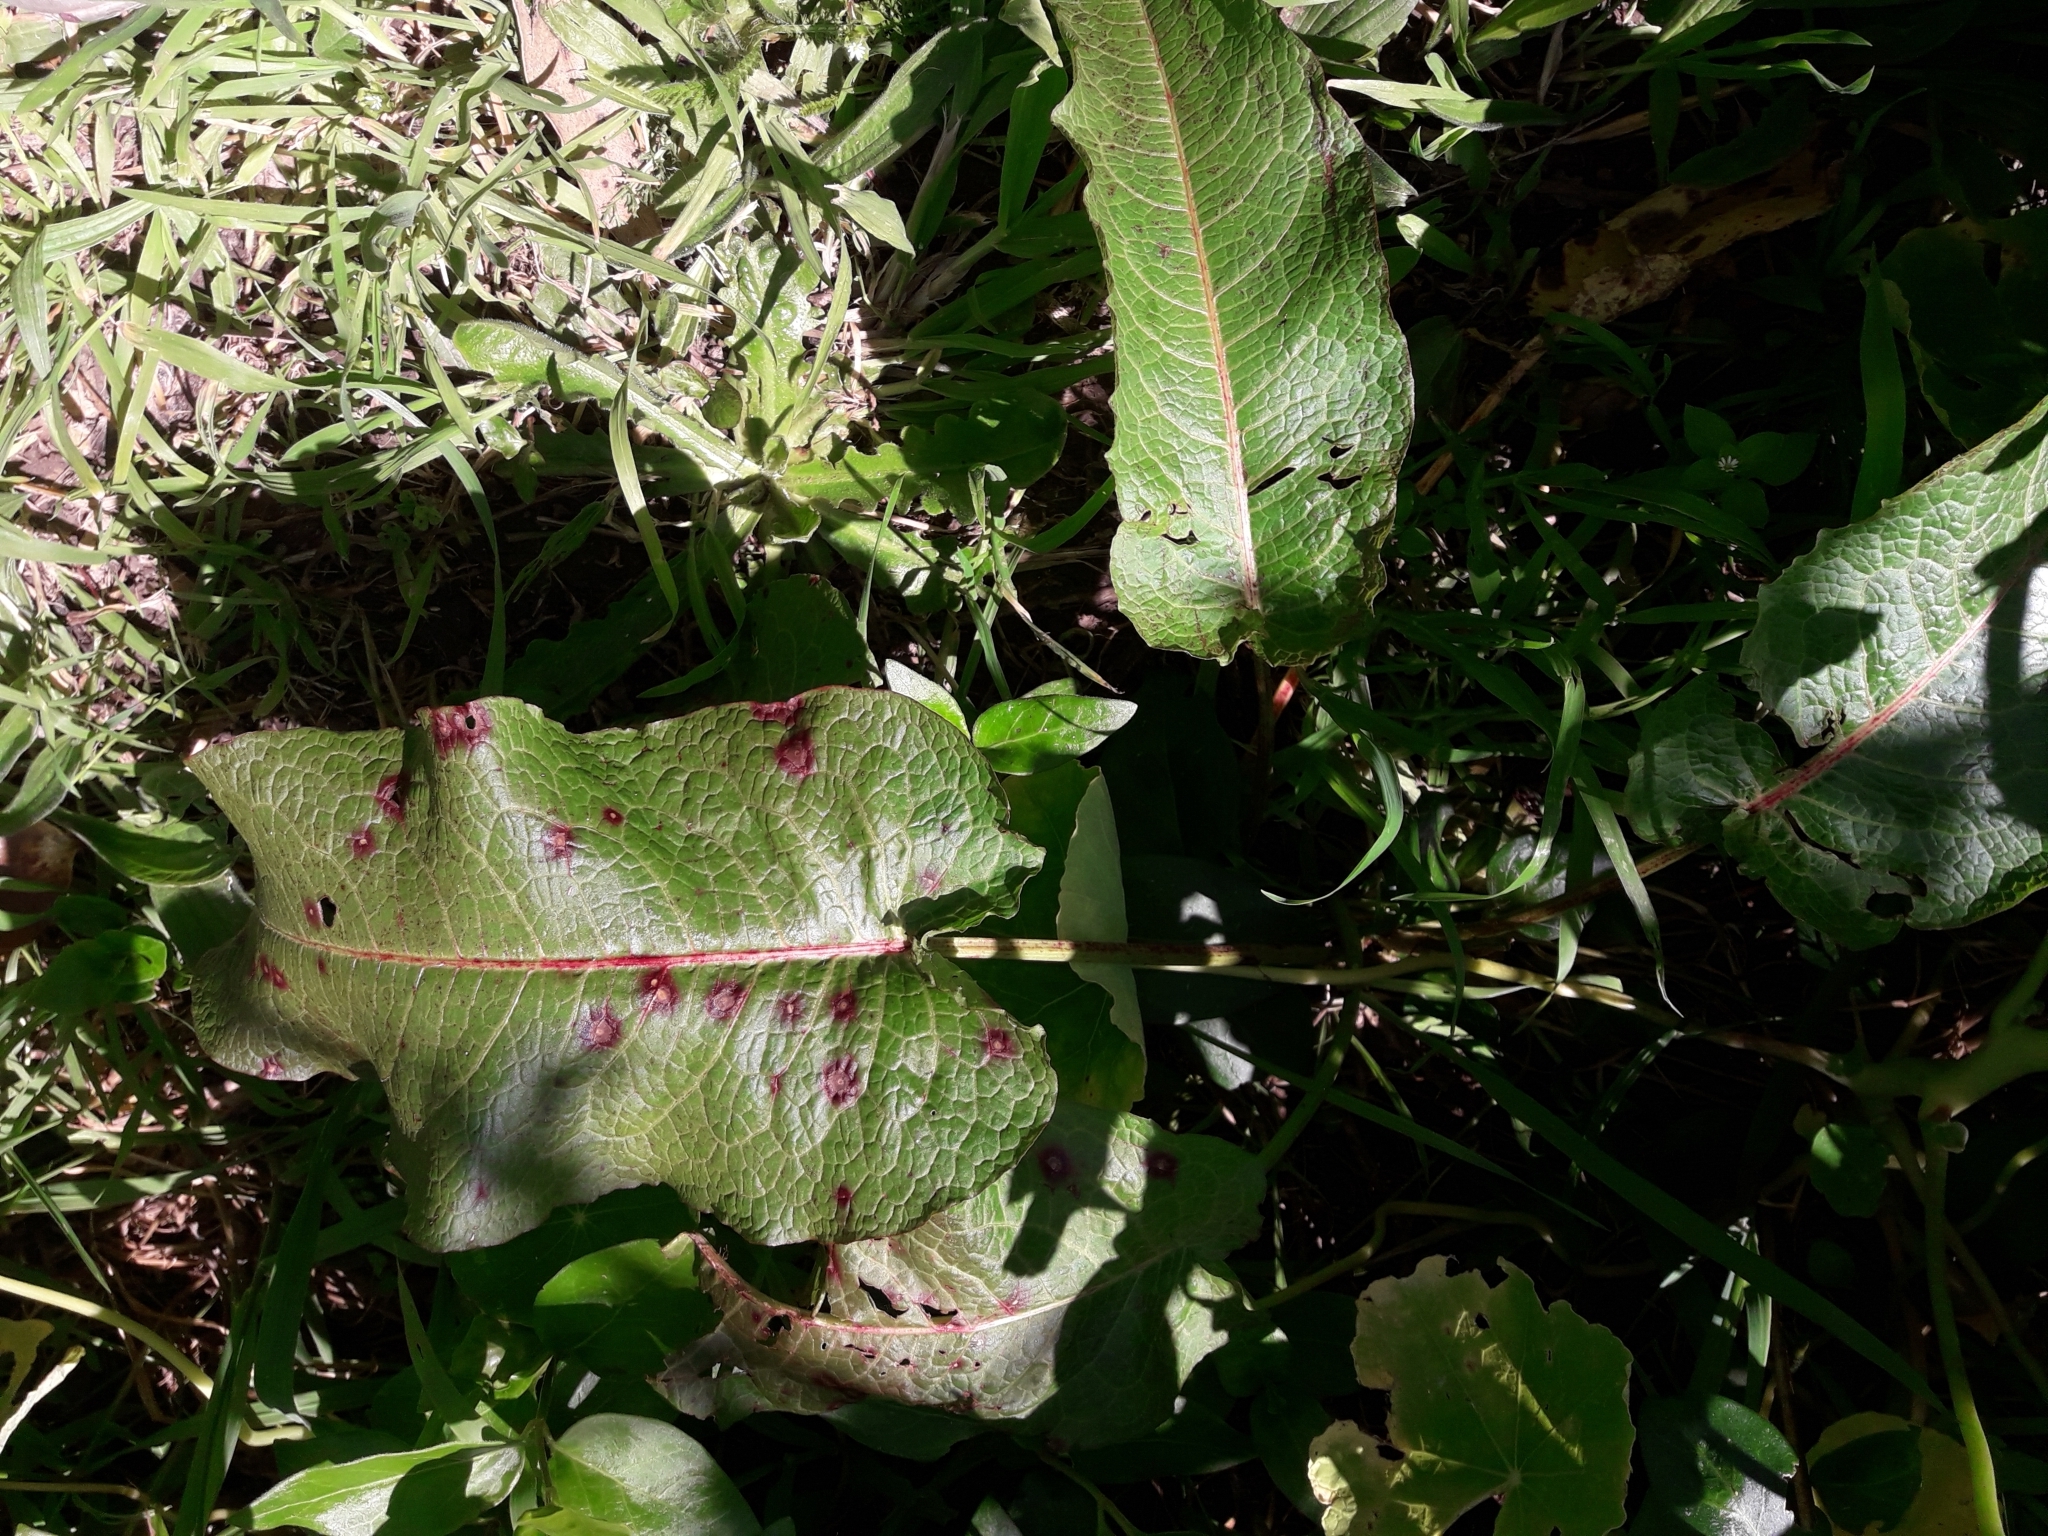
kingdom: Plantae
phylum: Tracheophyta
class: Magnoliopsida
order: Caryophyllales
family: Polygonaceae
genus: Rumex
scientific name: Rumex obtusifolius
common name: Bitter dock
